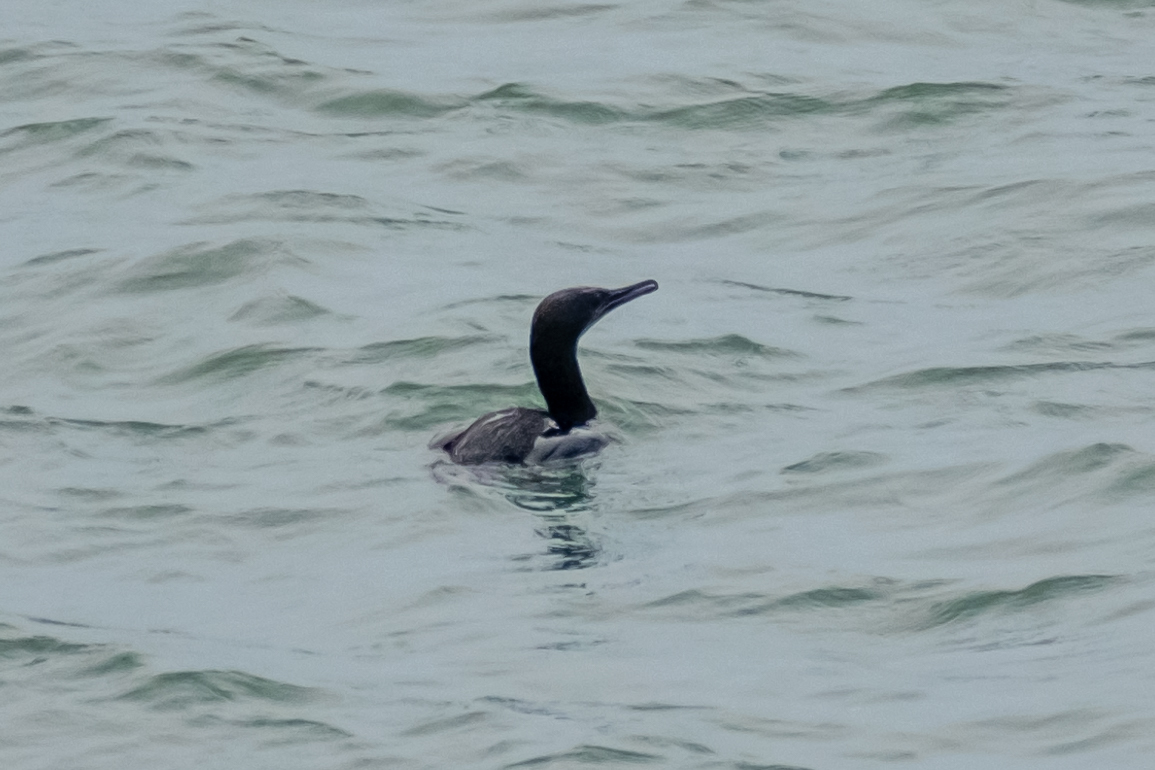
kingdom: Animalia
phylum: Chordata
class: Aves
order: Suliformes
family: Phalacrocoracidae
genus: Urile
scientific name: Urile penicillatus
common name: Brandt's cormorant
